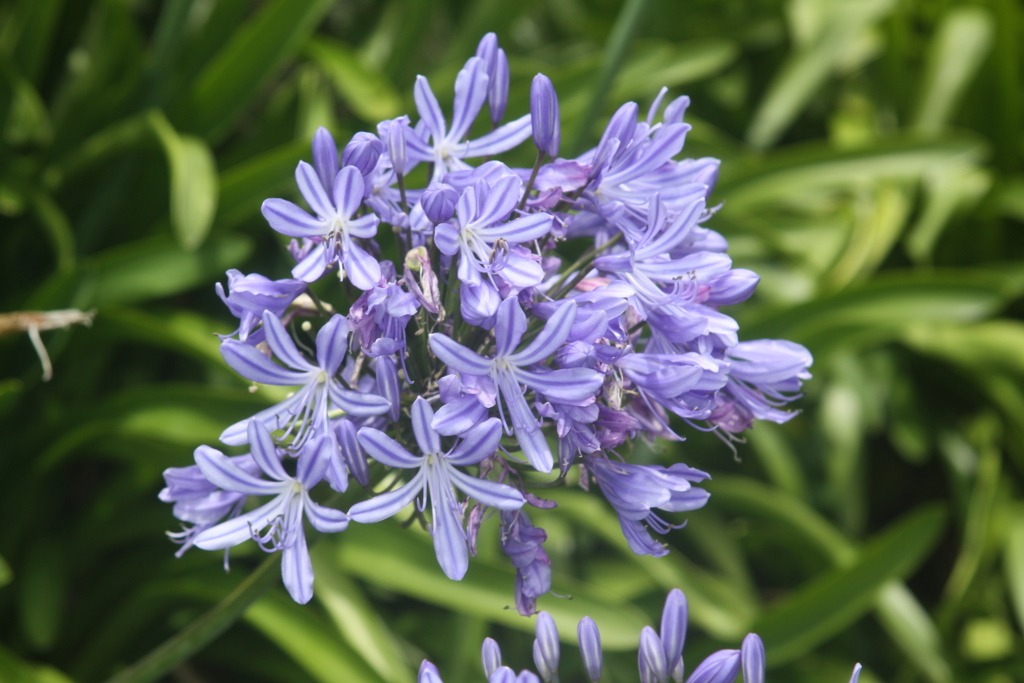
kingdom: Plantae
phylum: Tracheophyta
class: Liliopsida
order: Asparagales
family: Amaryllidaceae
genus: Agapanthus
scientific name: Agapanthus praecox
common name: African-lily
